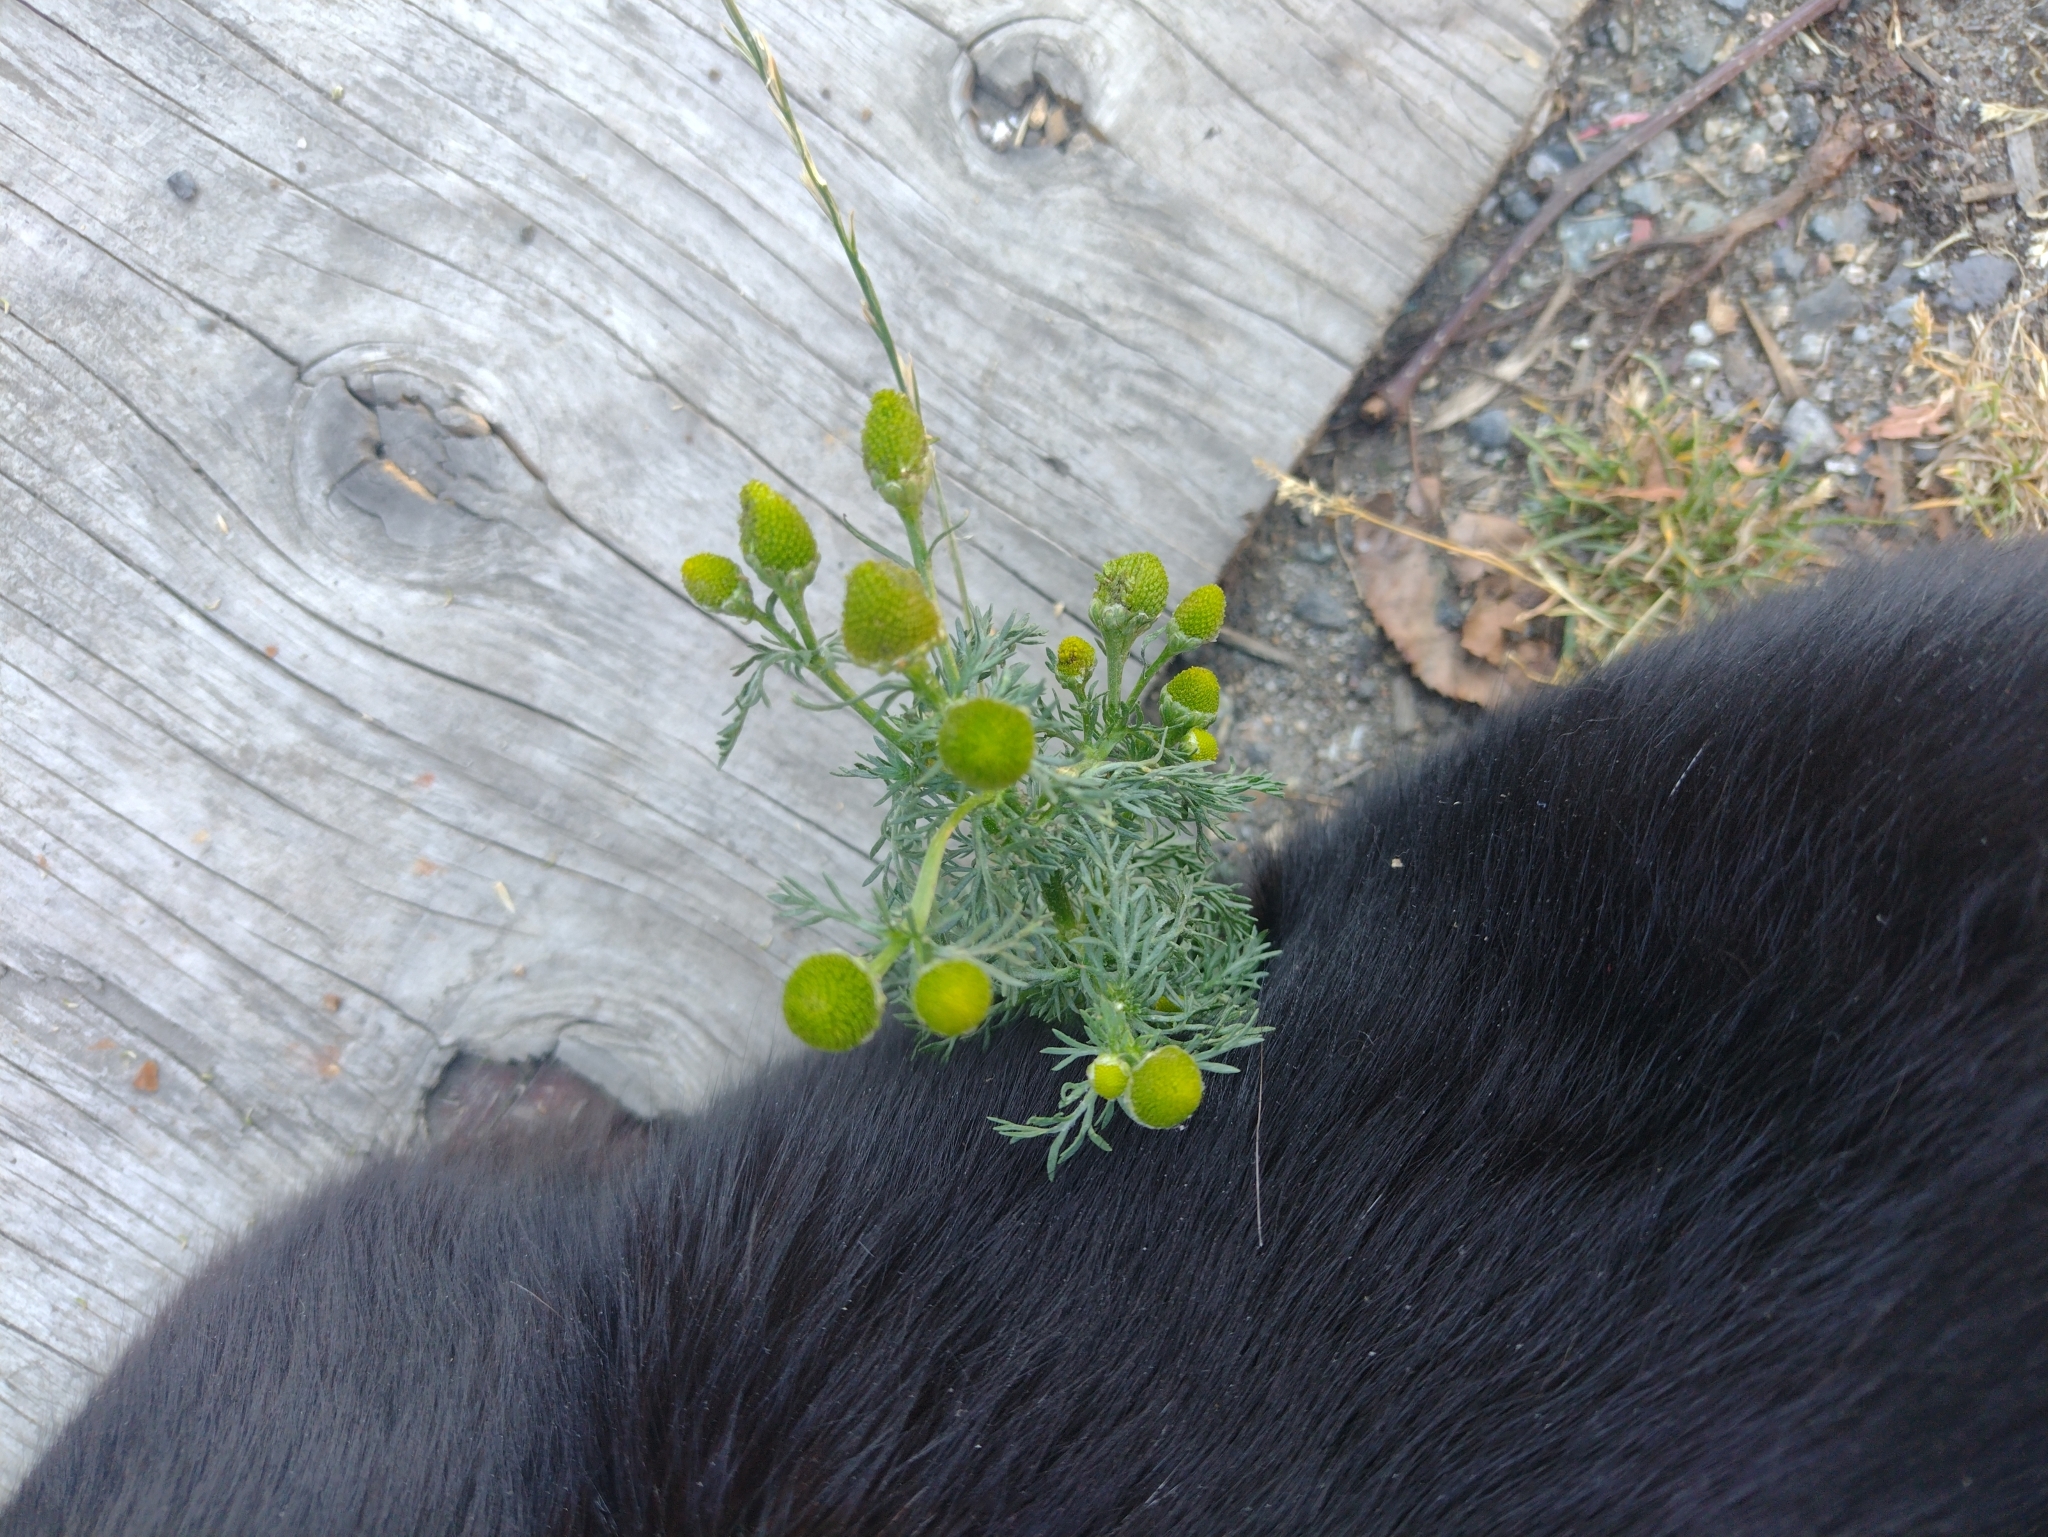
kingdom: Plantae
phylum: Tracheophyta
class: Magnoliopsida
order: Asterales
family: Asteraceae
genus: Matricaria
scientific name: Matricaria discoidea
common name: Disc mayweed
